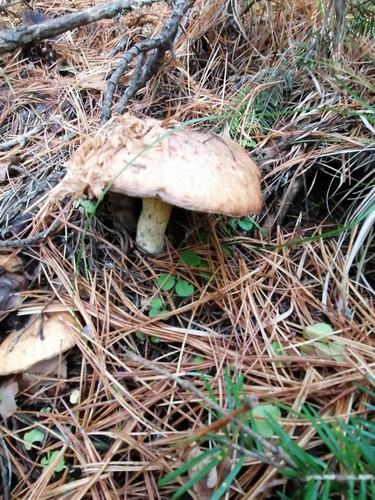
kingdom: Fungi
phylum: Basidiomycota
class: Agaricomycetes
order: Boletales
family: Suillaceae
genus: Suillus
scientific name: Suillus placidus
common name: Slippery white bolete
